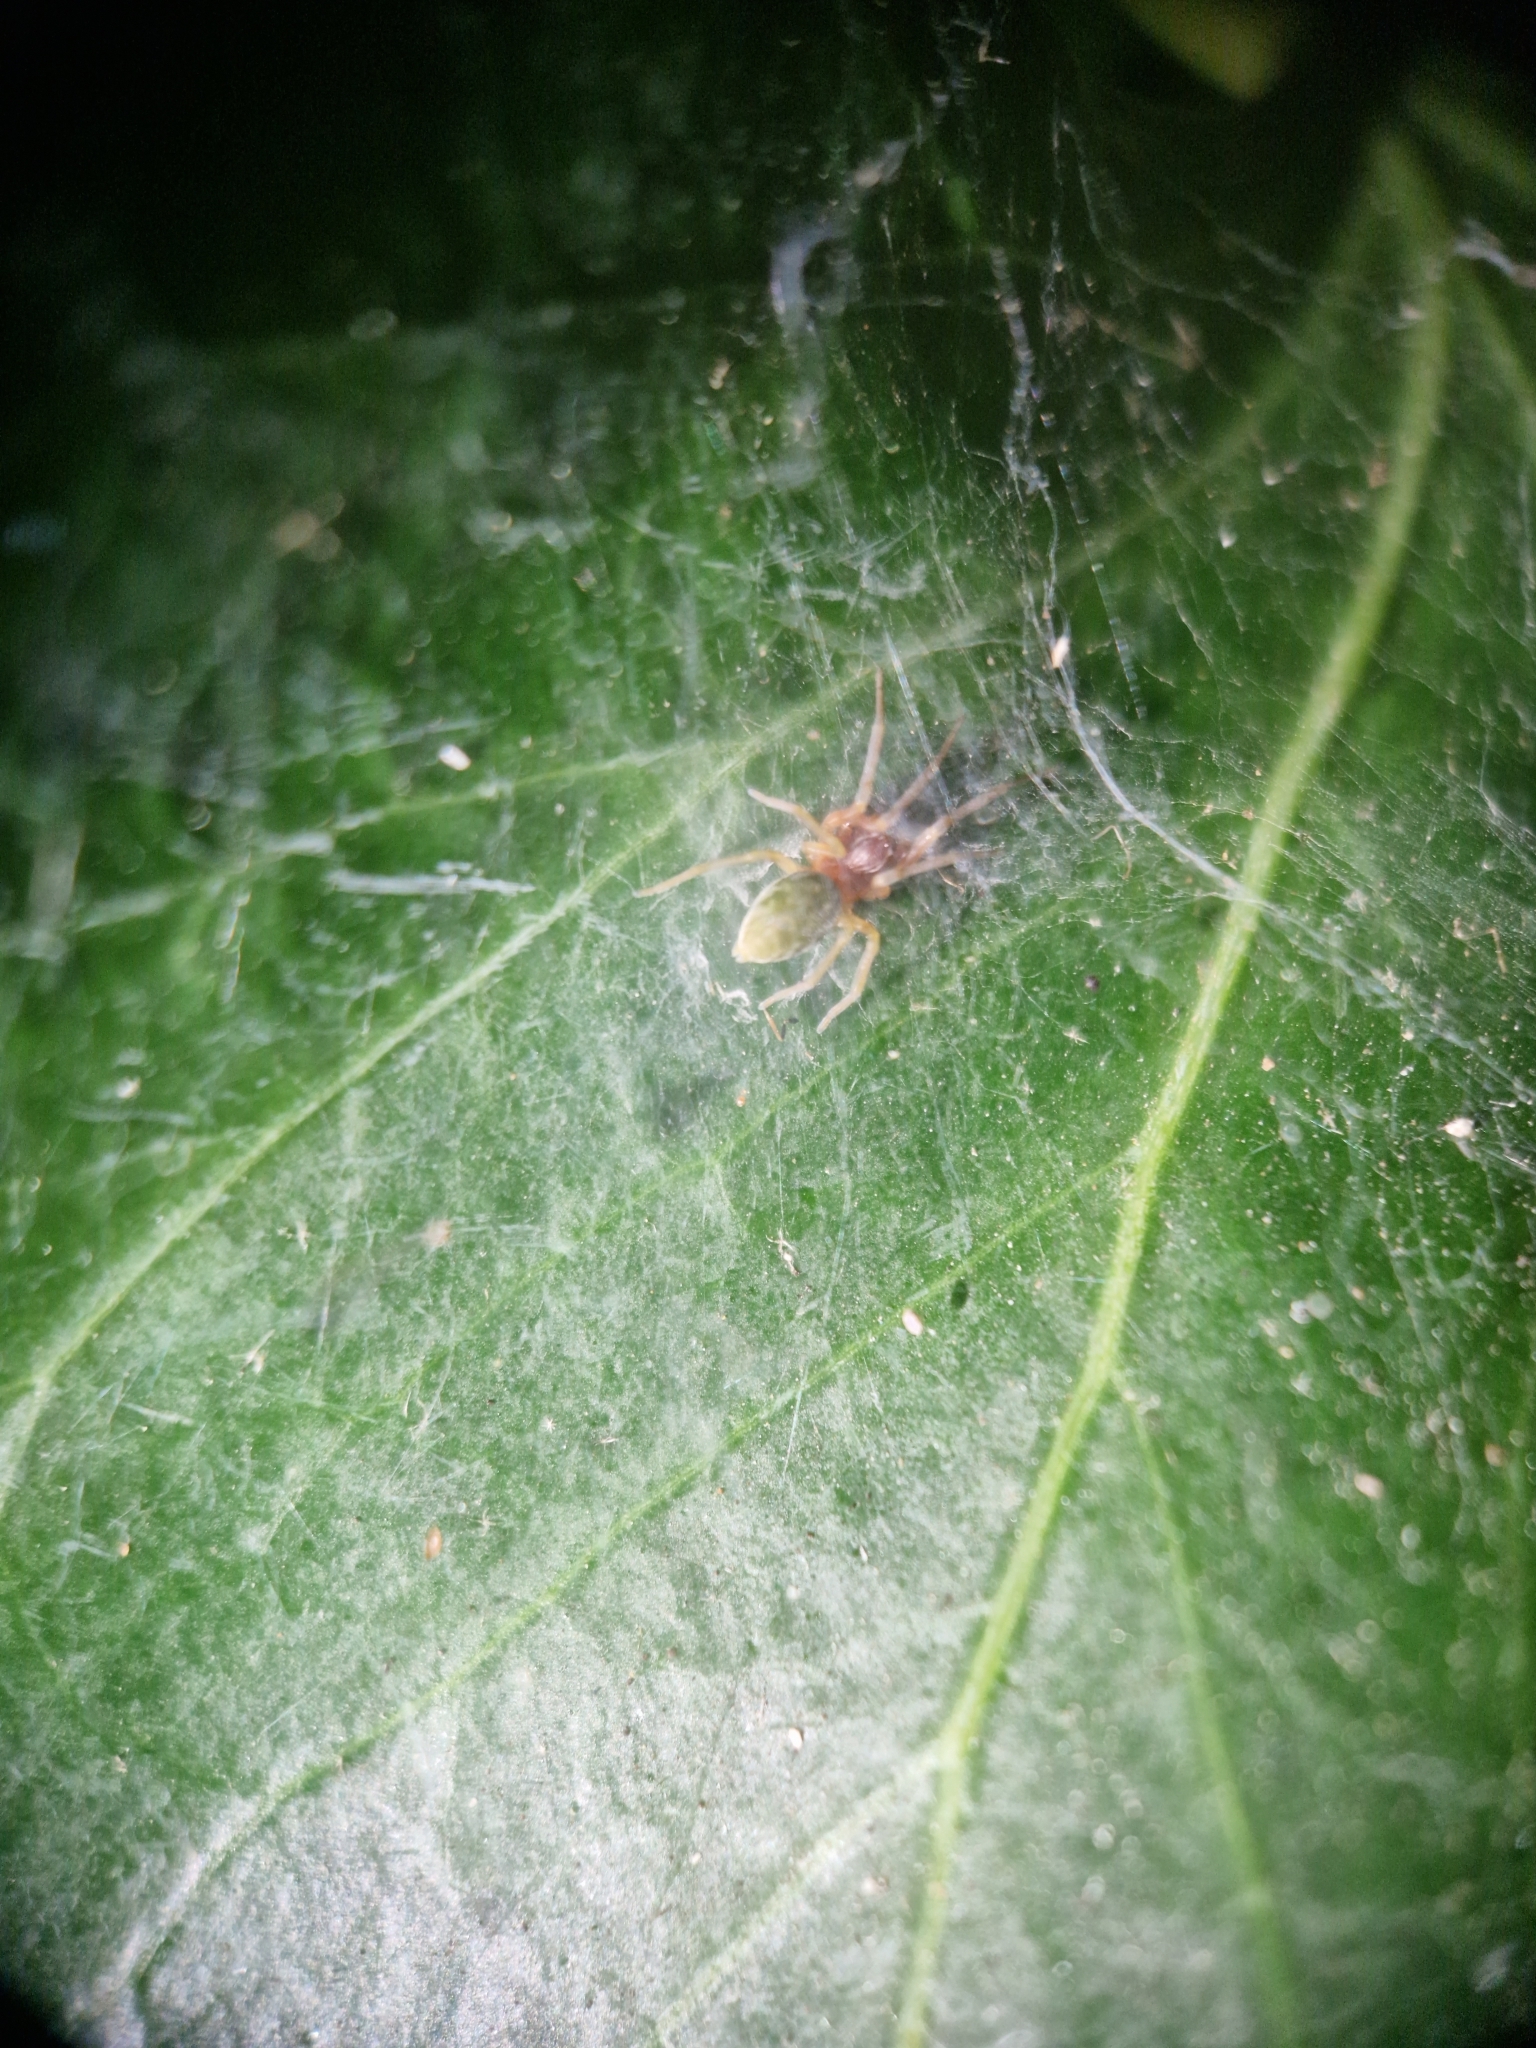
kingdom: Animalia
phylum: Arthropoda
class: Arachnida
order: Araneae
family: Dictynidae
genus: Nigma
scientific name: Nigma walckenaeri
